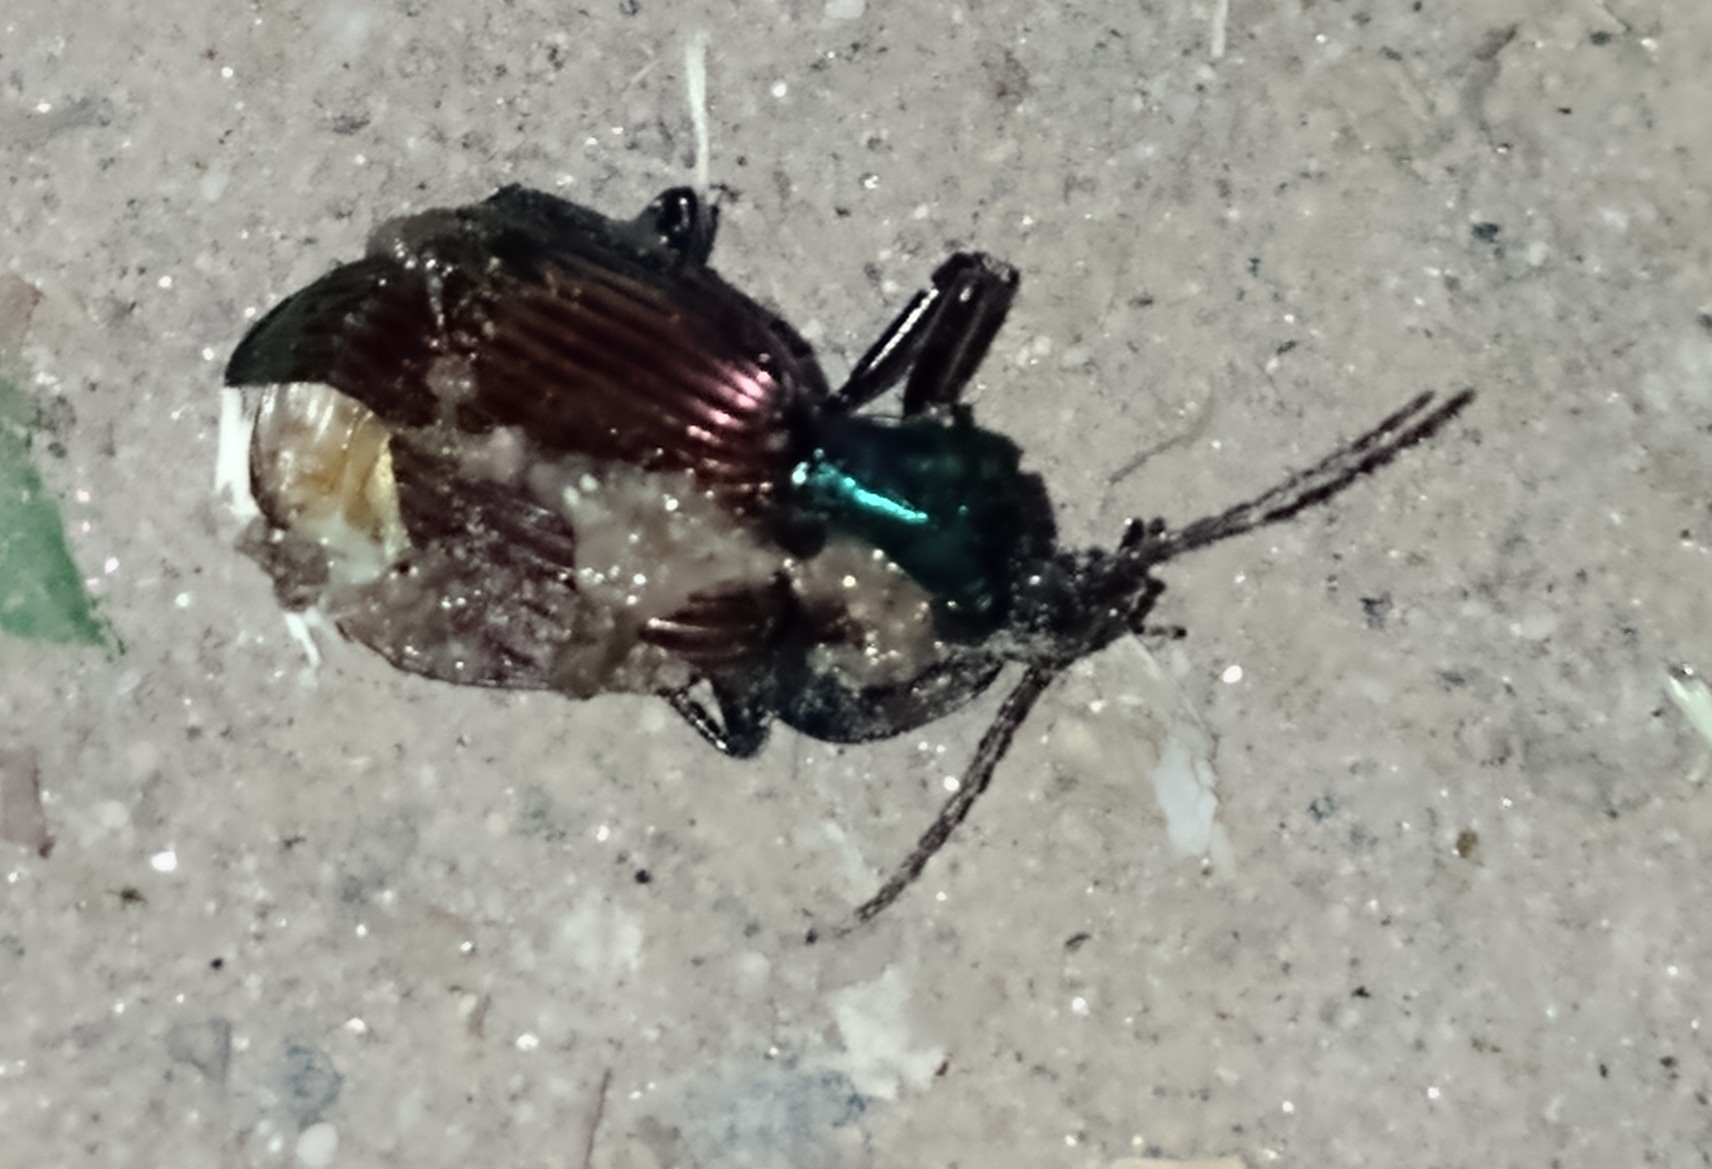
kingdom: Animalia
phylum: Arthropoda
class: Insecta
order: Coleoptera
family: Carabidae
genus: Brachygnathus
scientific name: Brachygnathus festivus
